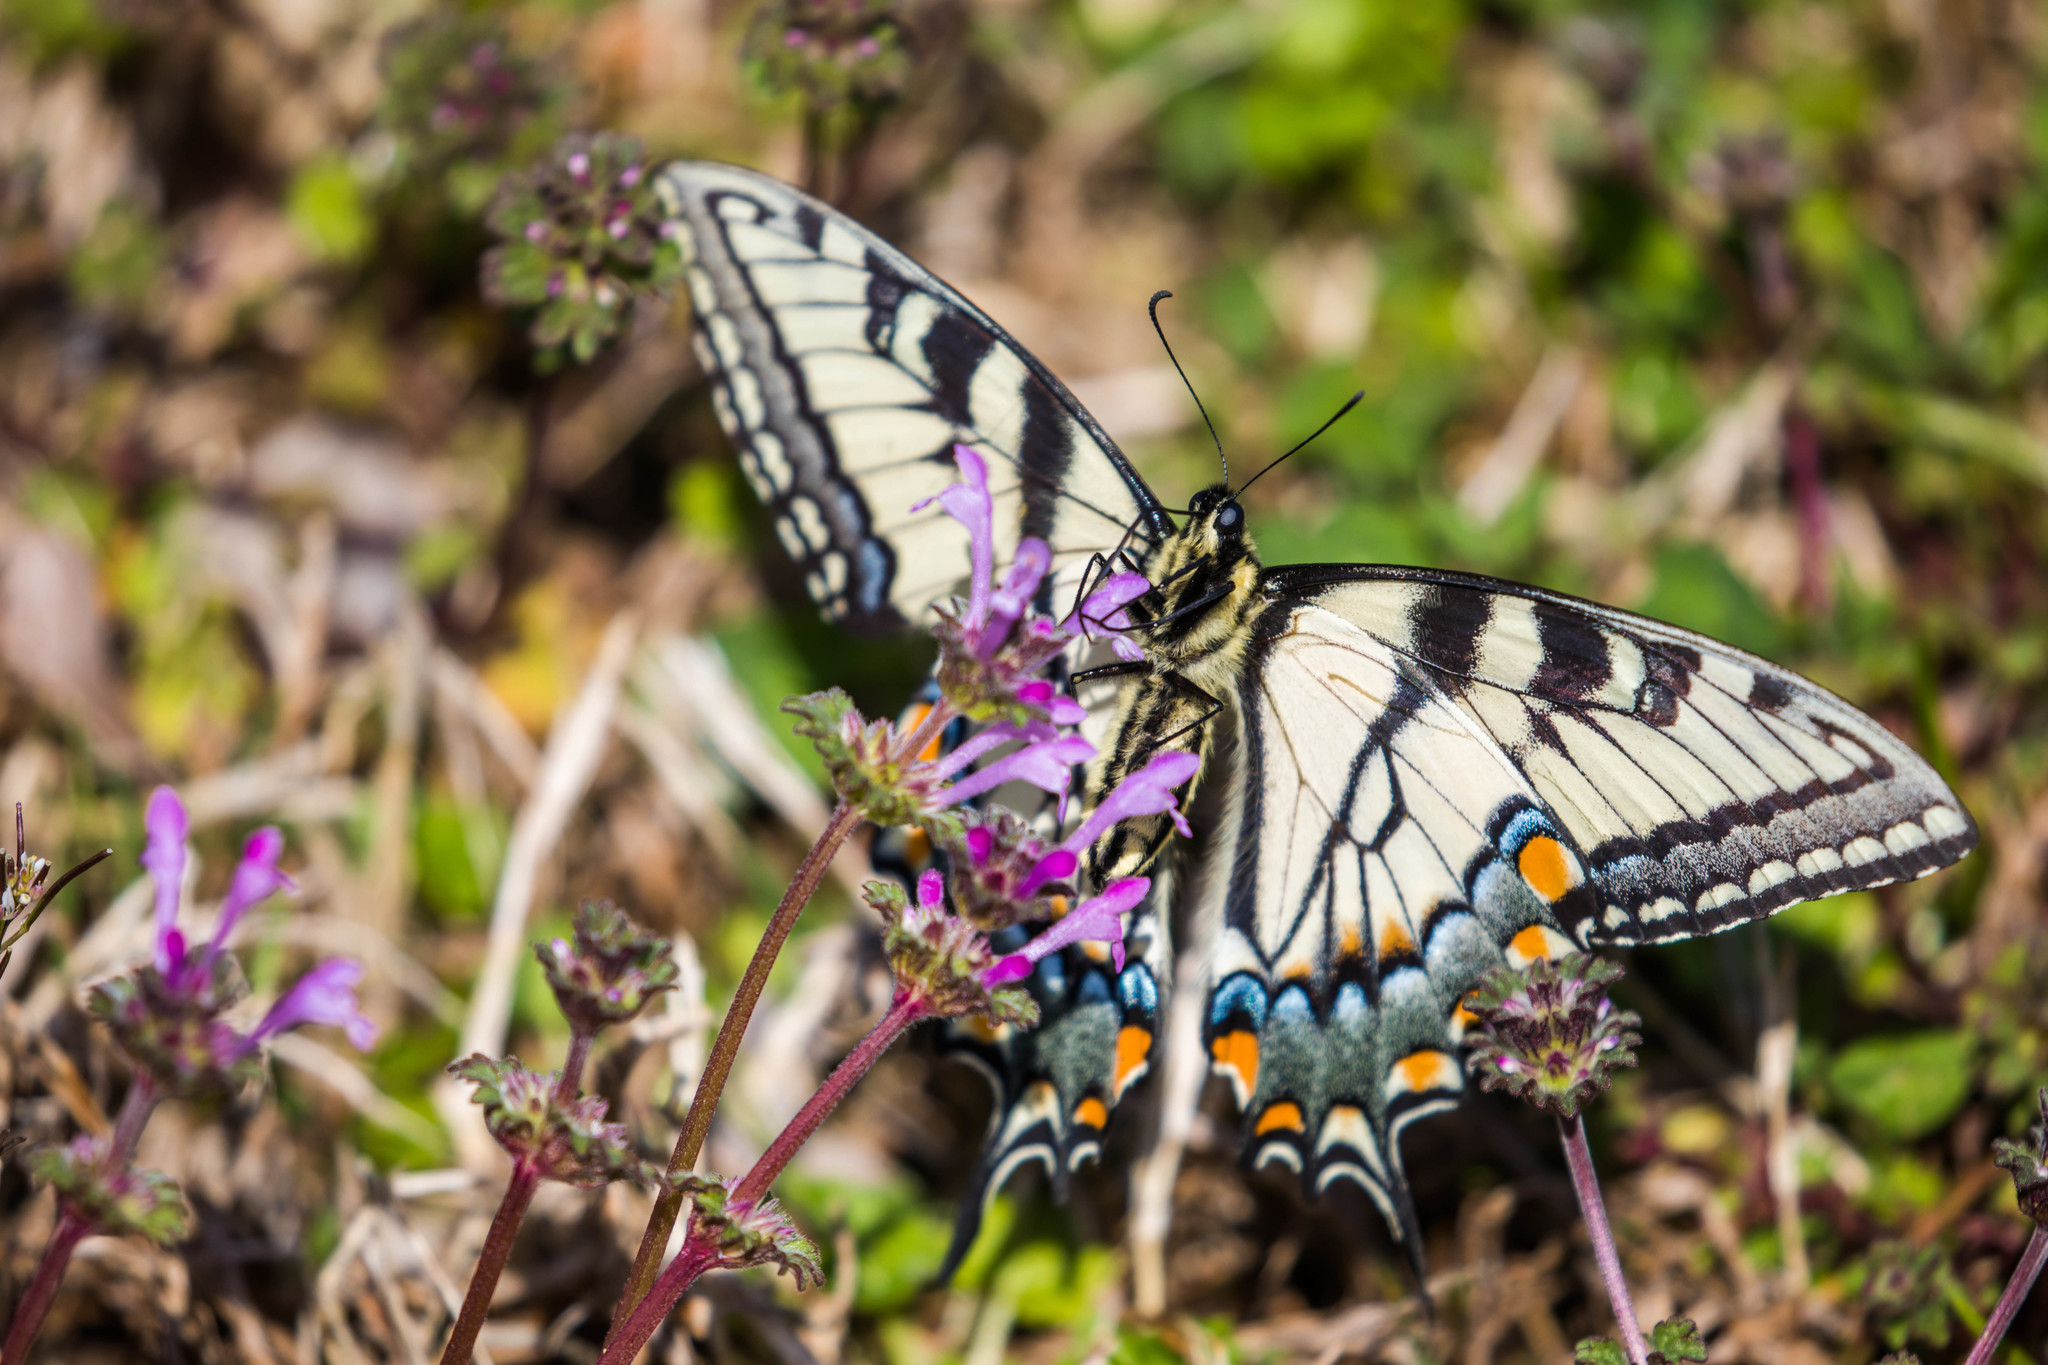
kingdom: Animalia
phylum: Arthropoda
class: Insecta
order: Lepidoptera
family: Papilionidae
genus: Papilio
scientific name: Papilio glaucus
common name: Tiger swallowtail
